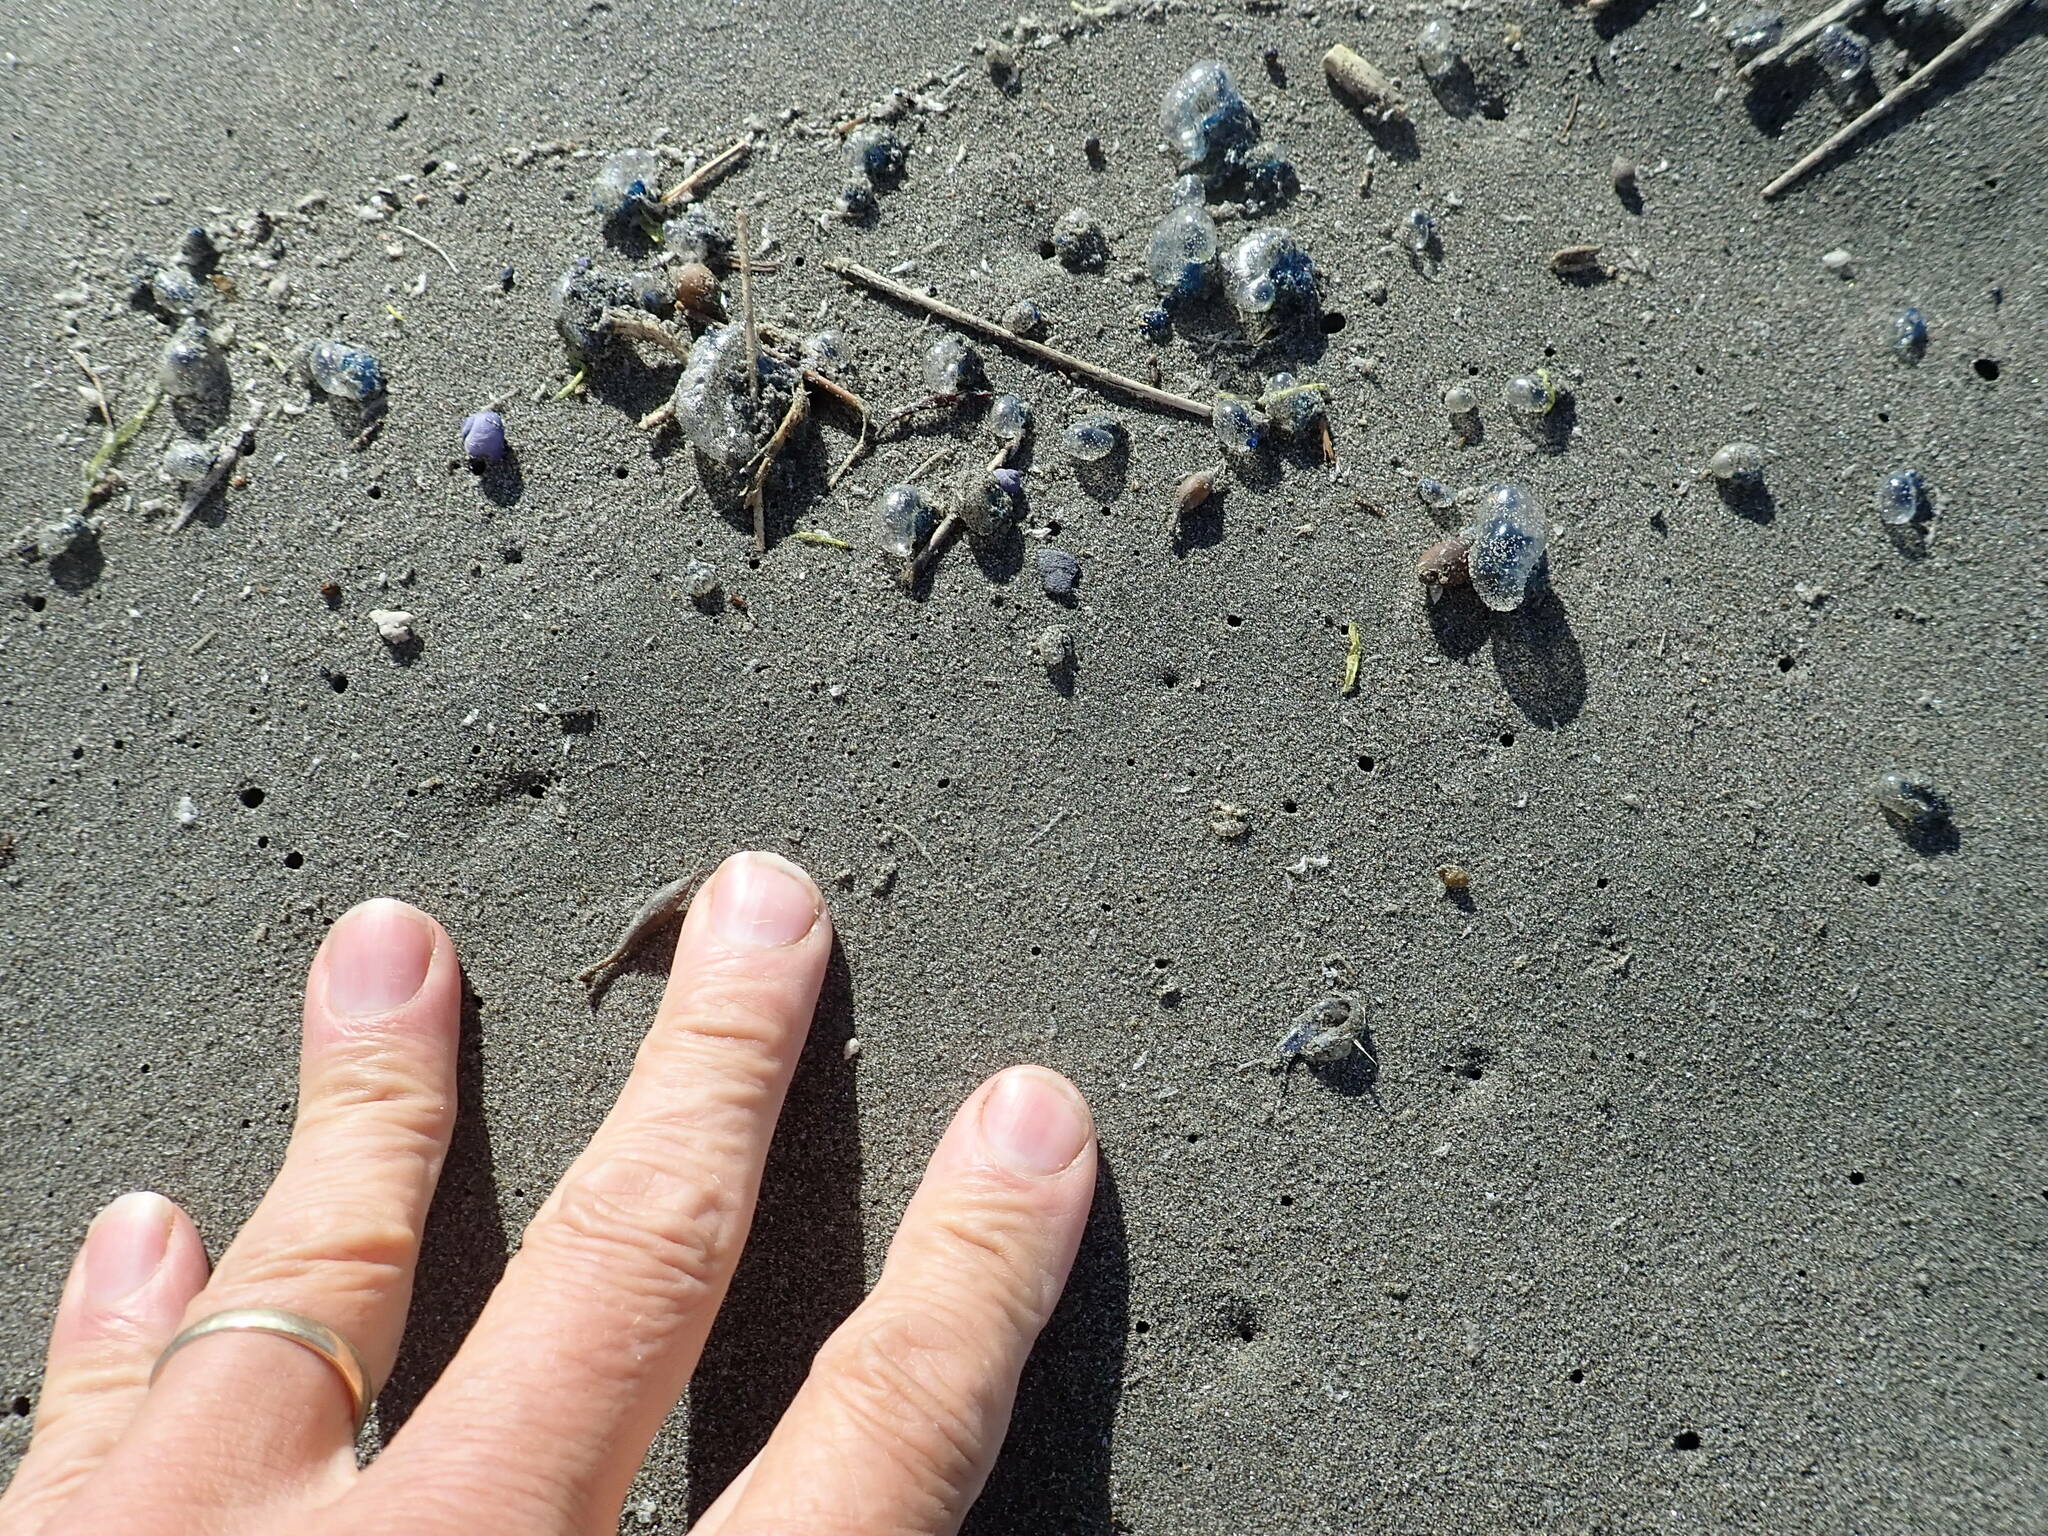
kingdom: Animalia
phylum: Mollusca
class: Gastropoda
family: Epitoniidae
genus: Janthina
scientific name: Janthina exigua
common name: Dwarf janthina
